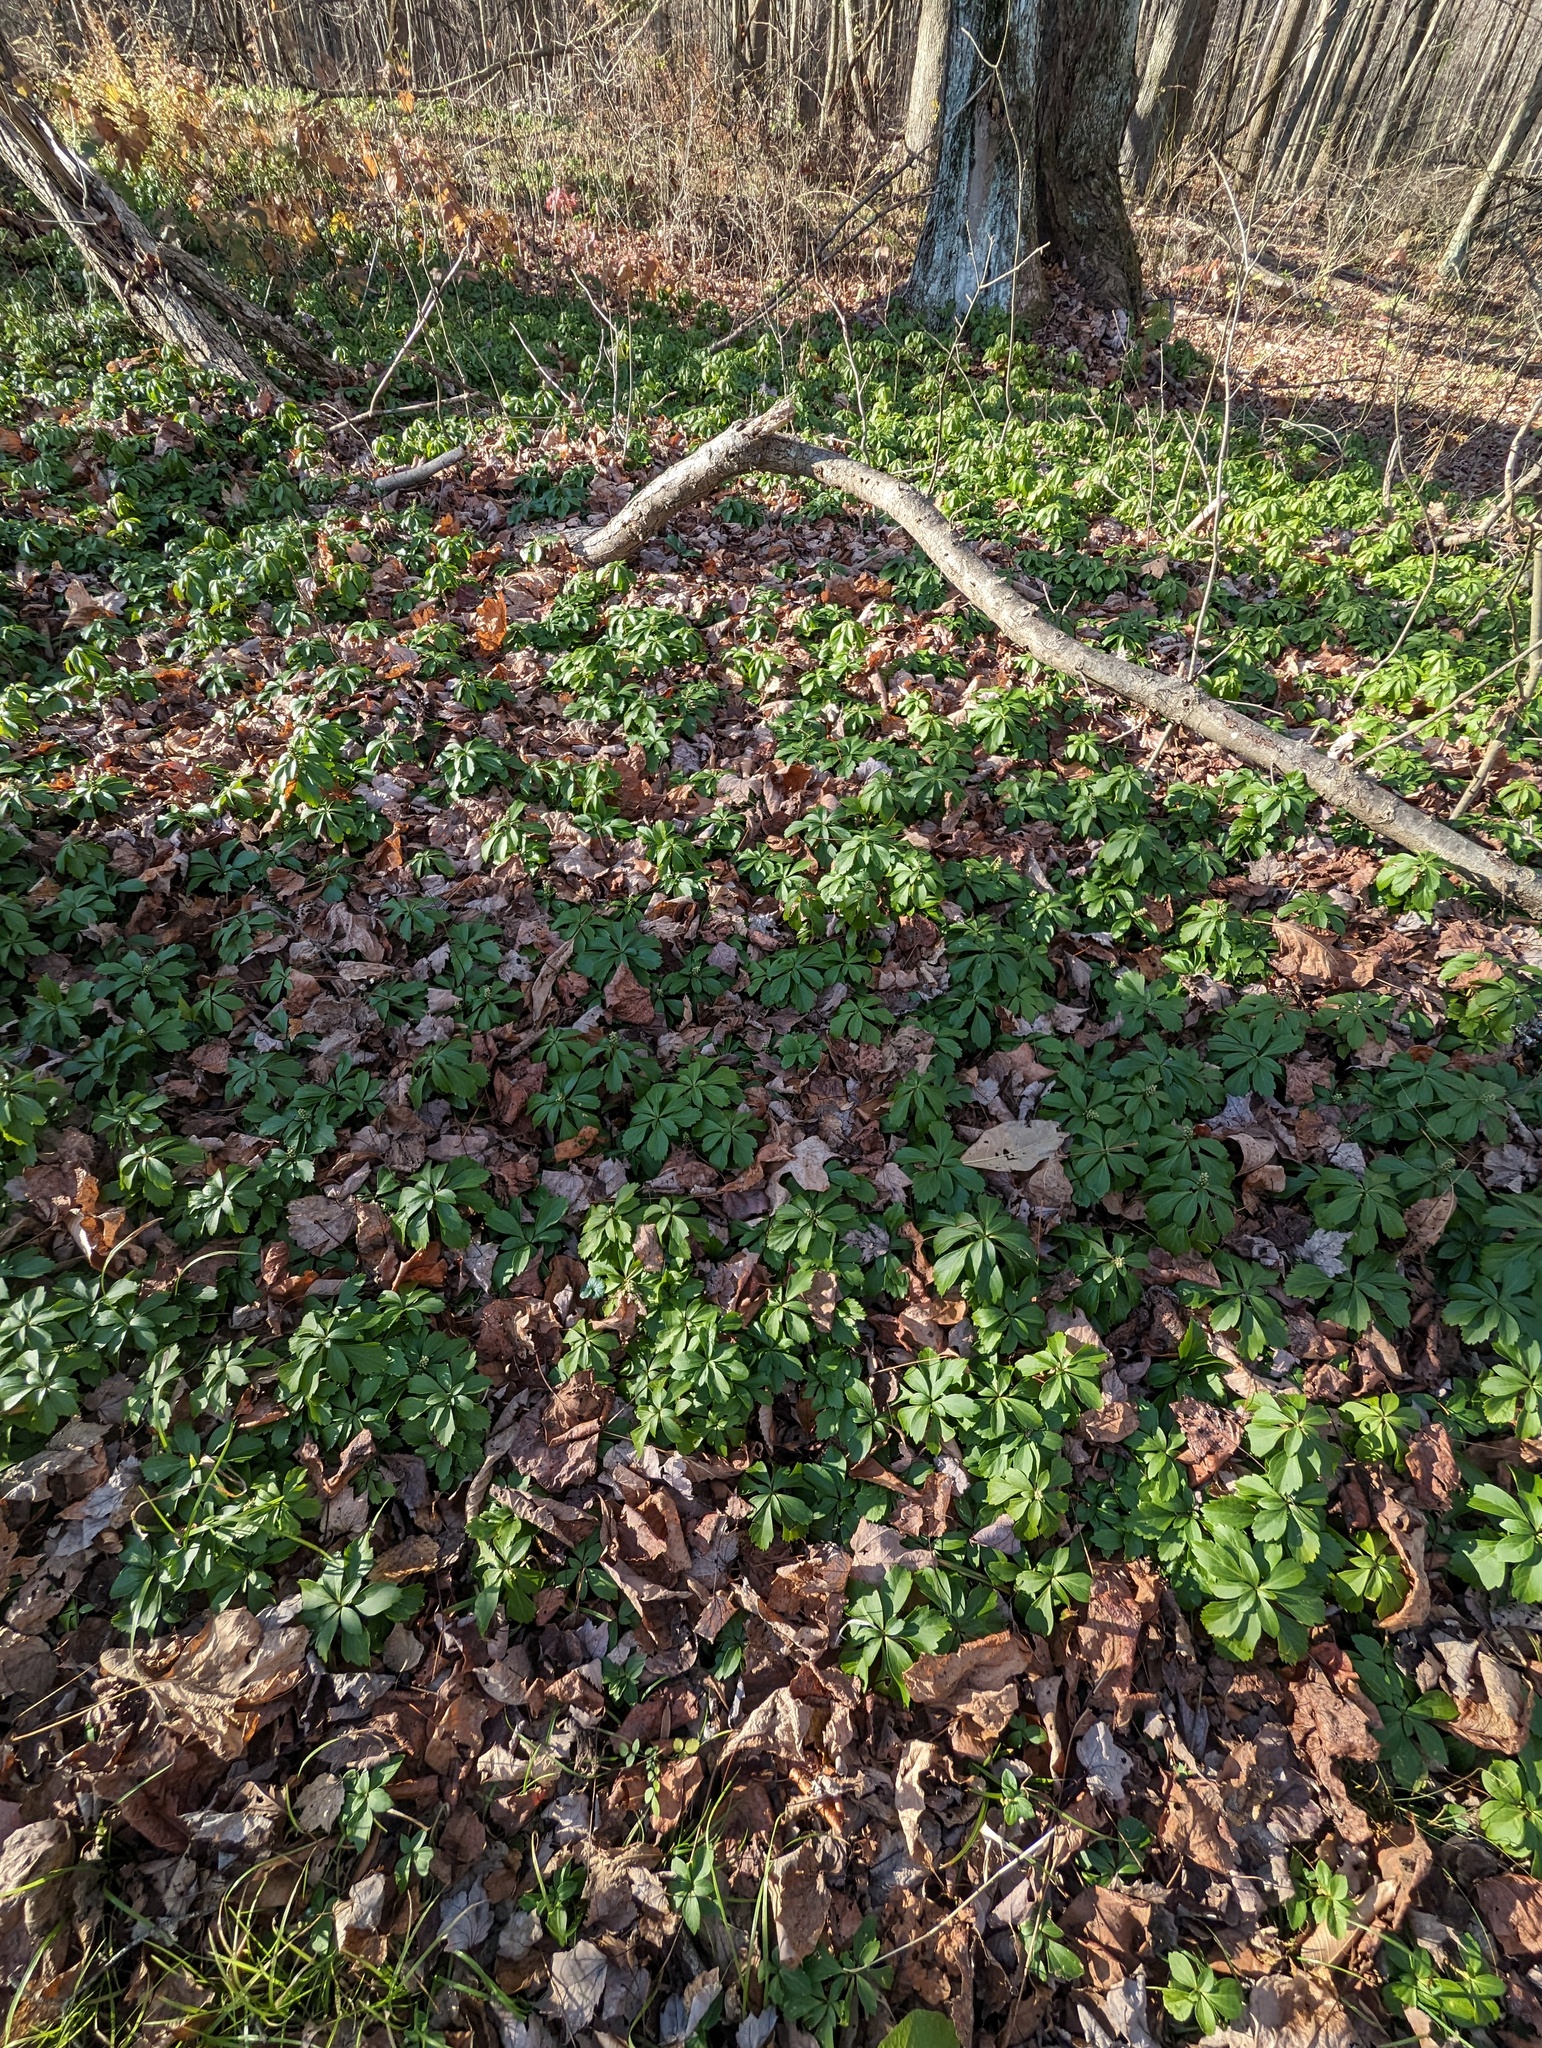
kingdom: Plantae
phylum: Tracheophyta
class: Magnoliopsida
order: Buxales
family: Buxaceae
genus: Pachysandra
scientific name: Pachysandra terminalis
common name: Japanese pachysandra
